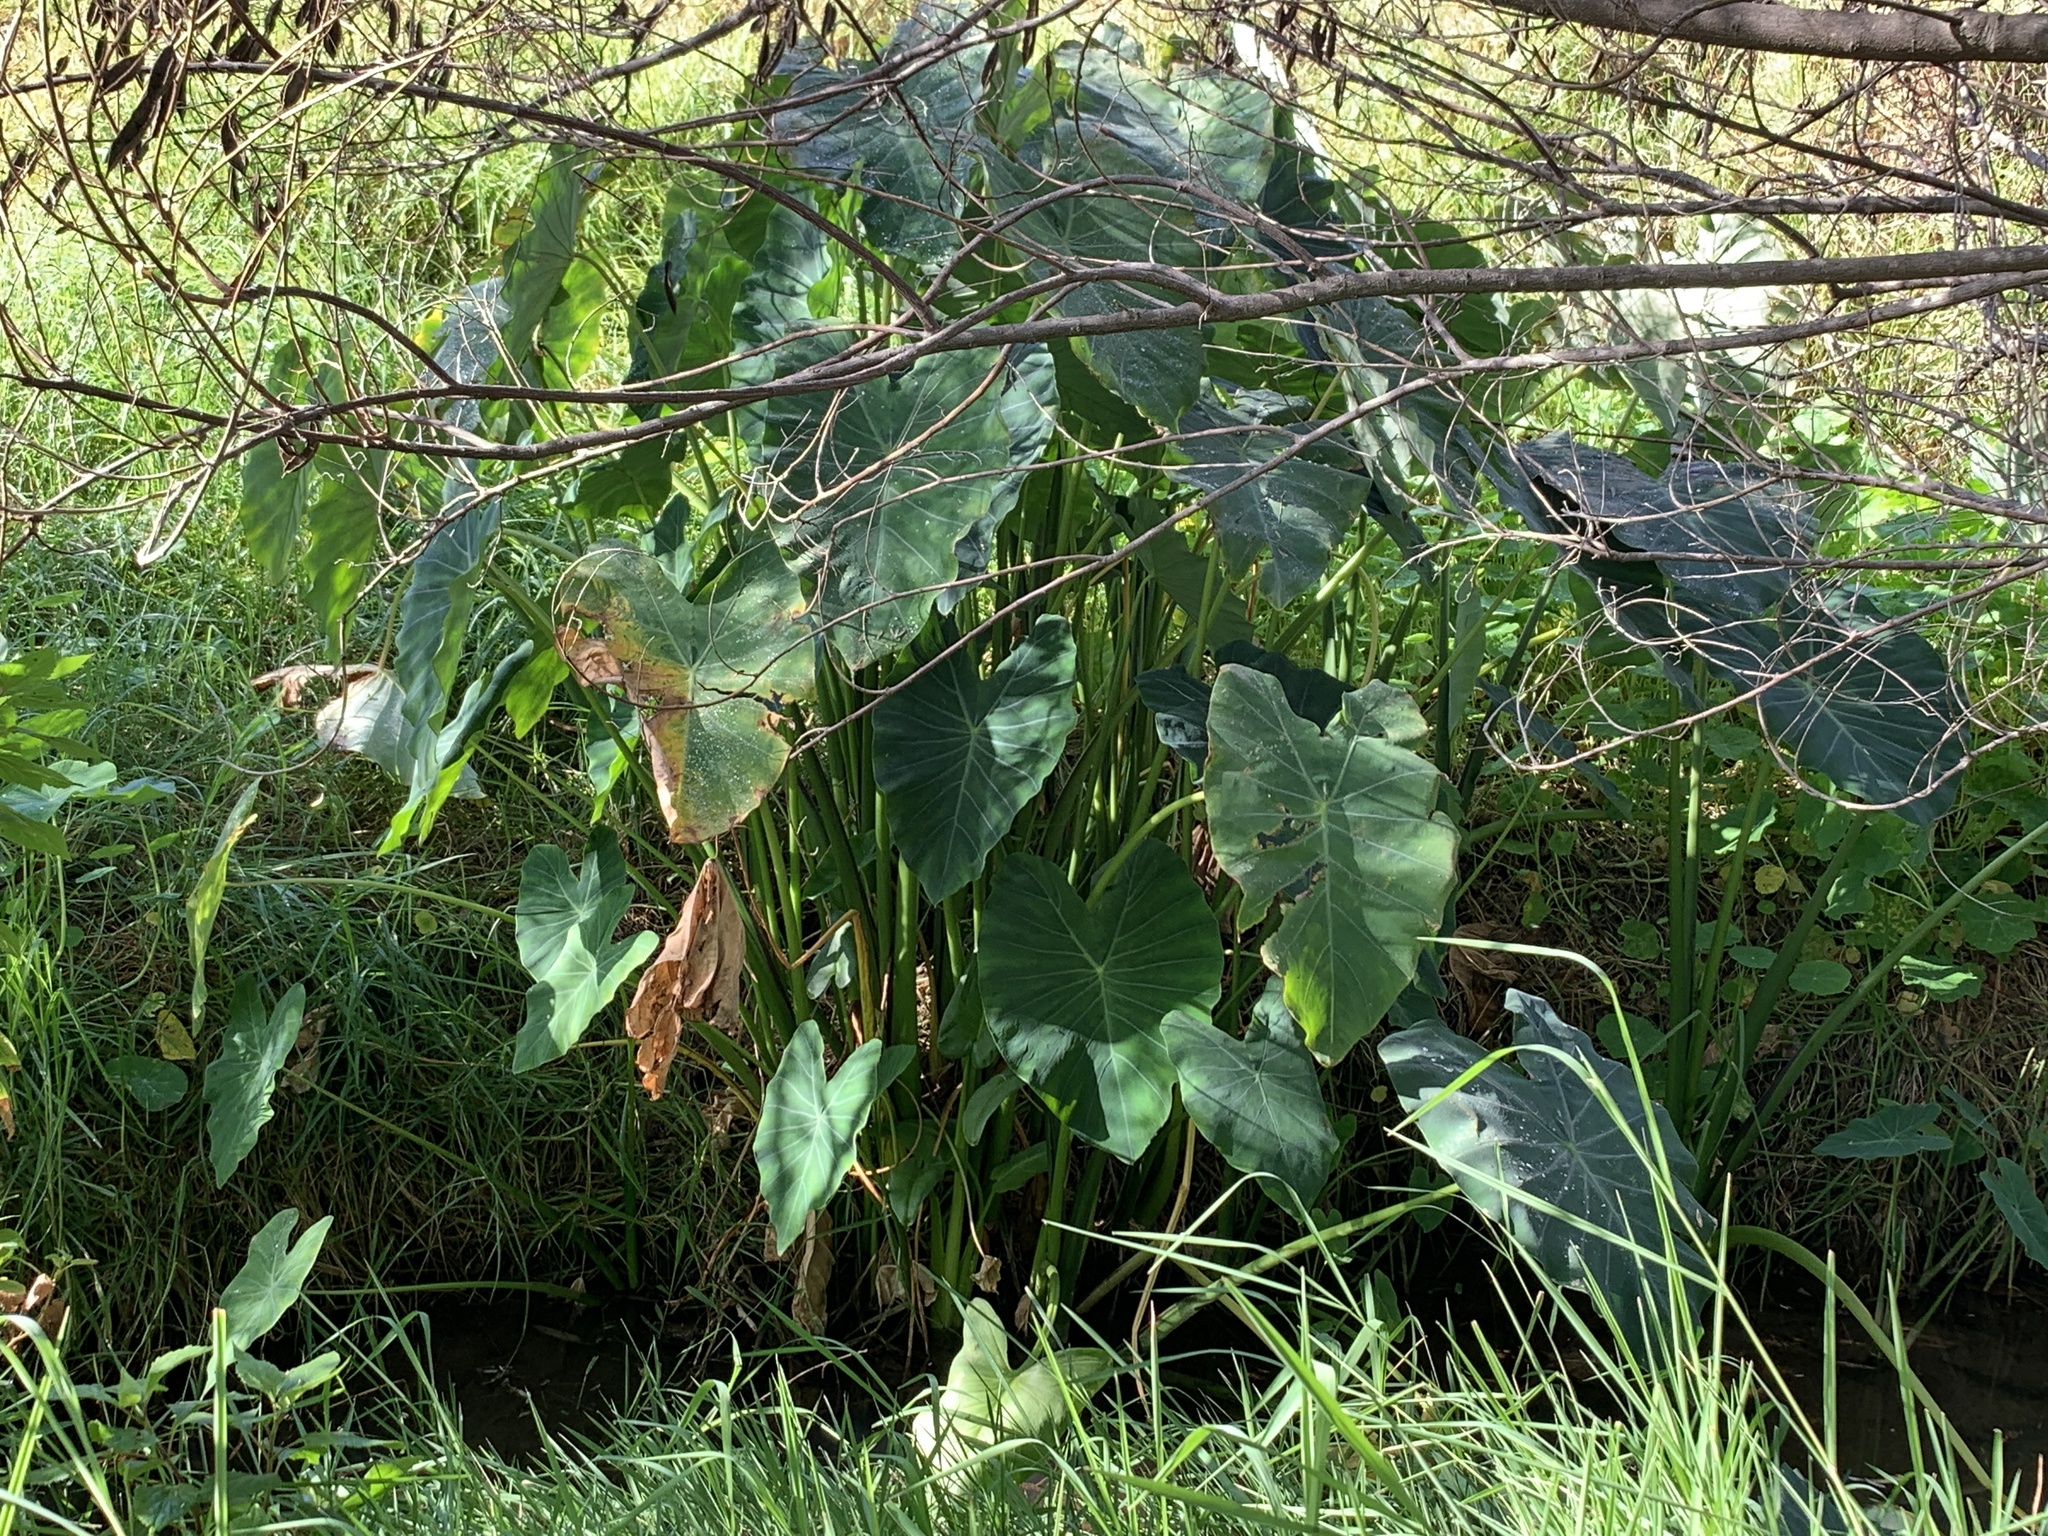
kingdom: Plantae
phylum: Tracheophyta
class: Liliopsida
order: Alismatales
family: Araceae
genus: Colocasia
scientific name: Colocasia esculenta
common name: Taro
